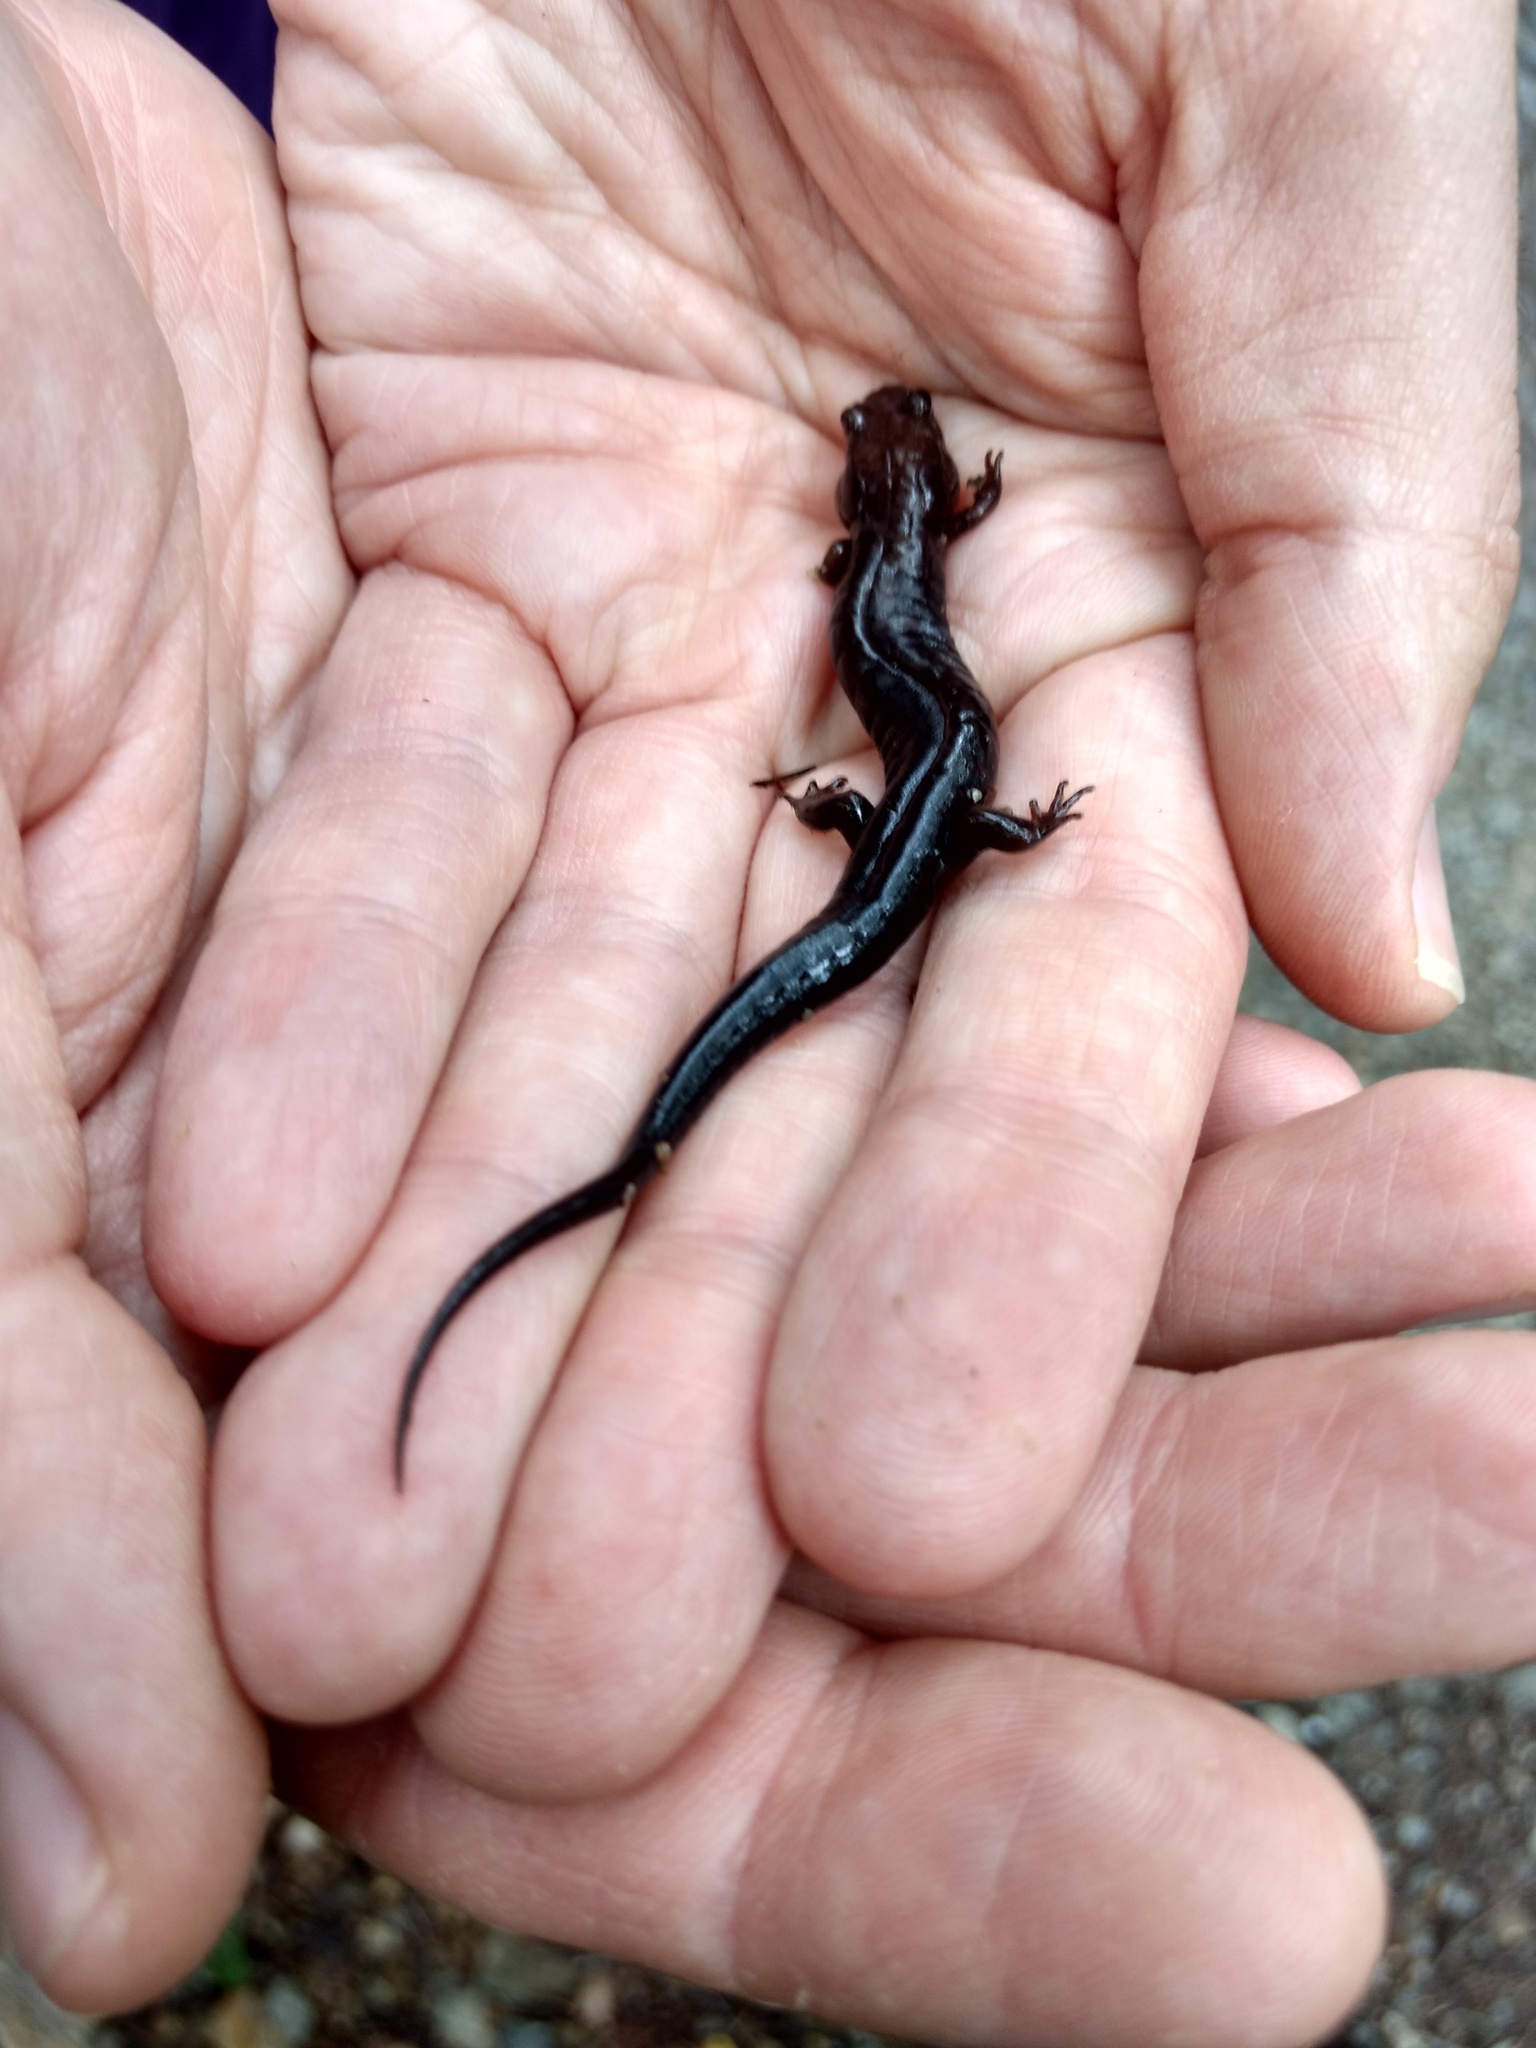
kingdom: Animalia
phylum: Chordata
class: Amphibia
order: Caudata
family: Plethodontidae
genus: Desmognathus
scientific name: Desmognathus carolinensis
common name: Carolina mountain dusky salamander
